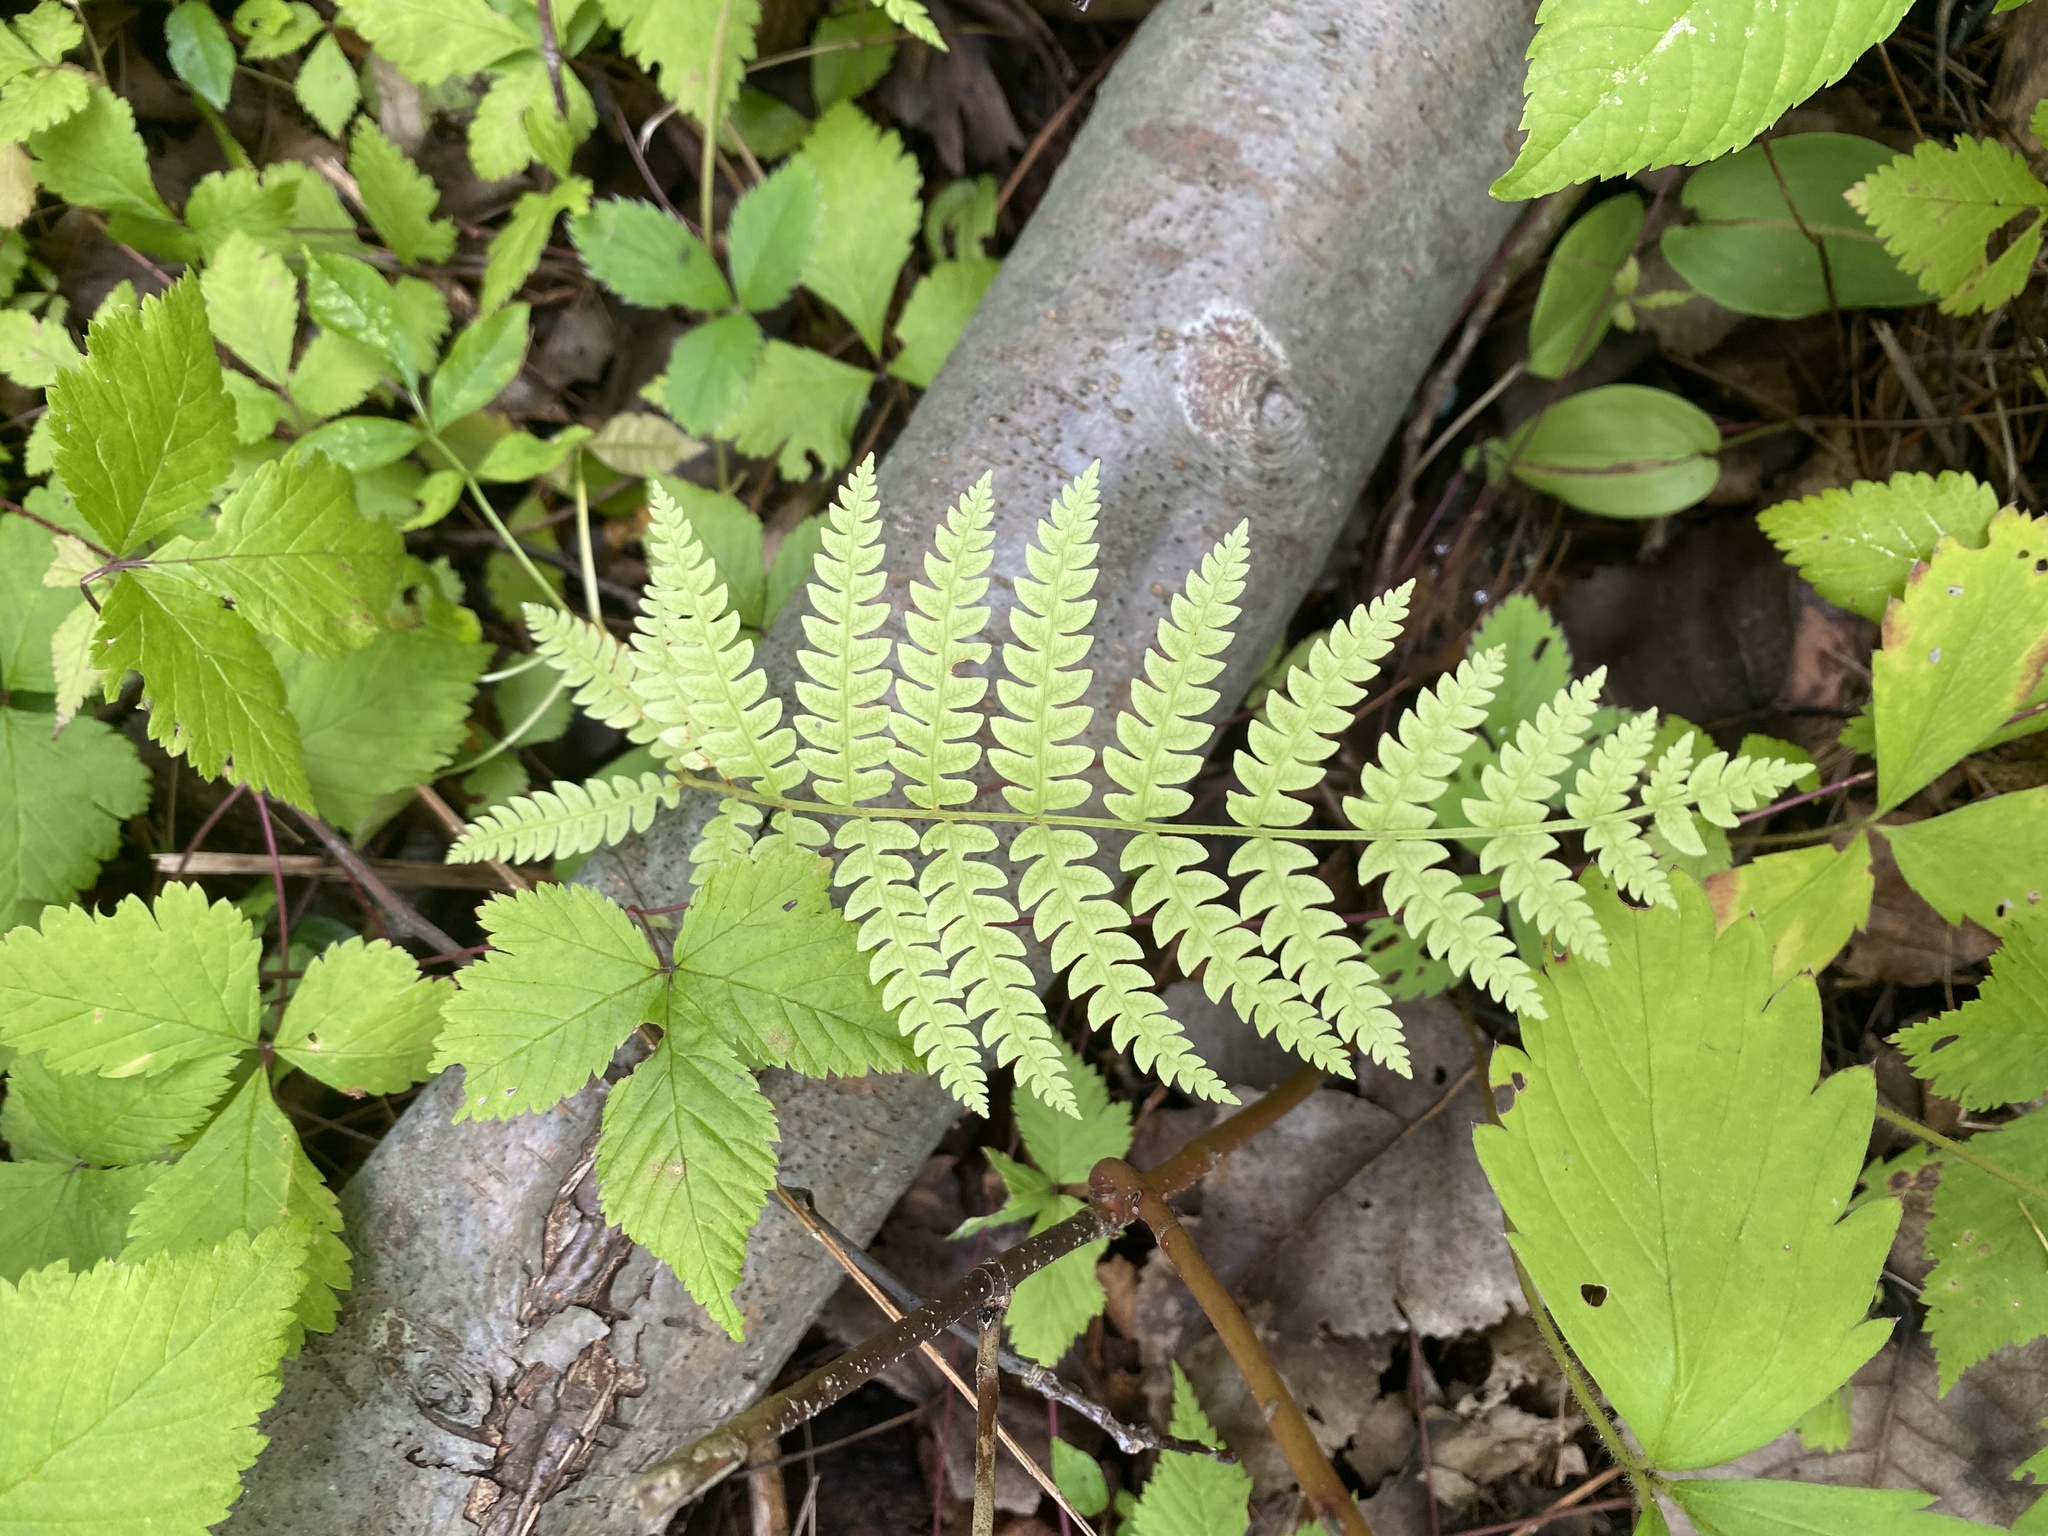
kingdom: Plantae
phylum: Tracheophyta
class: Polypodiopsida
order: Osmundales
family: Osmundaceae
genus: Osmundastrum
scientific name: Osmundastrum cinnamomeum
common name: Cinnamon fern
